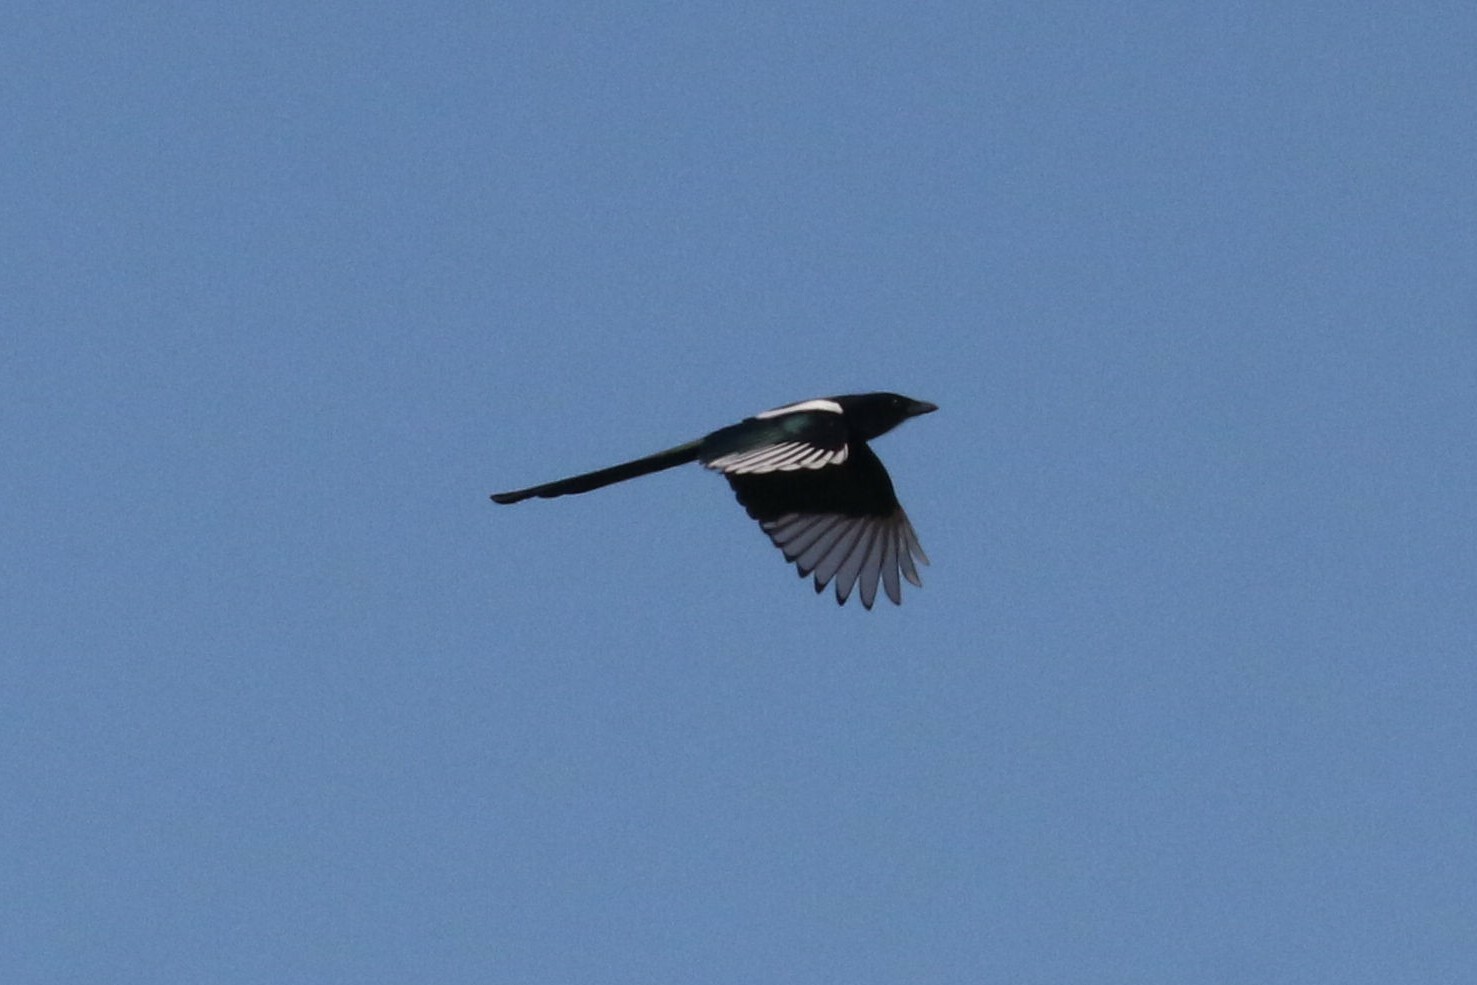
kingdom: Animalia
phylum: Chordata
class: Aves
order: Passeriformes
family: Corvidae
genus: Pica
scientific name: Pica pica
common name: Eurasian magpie
